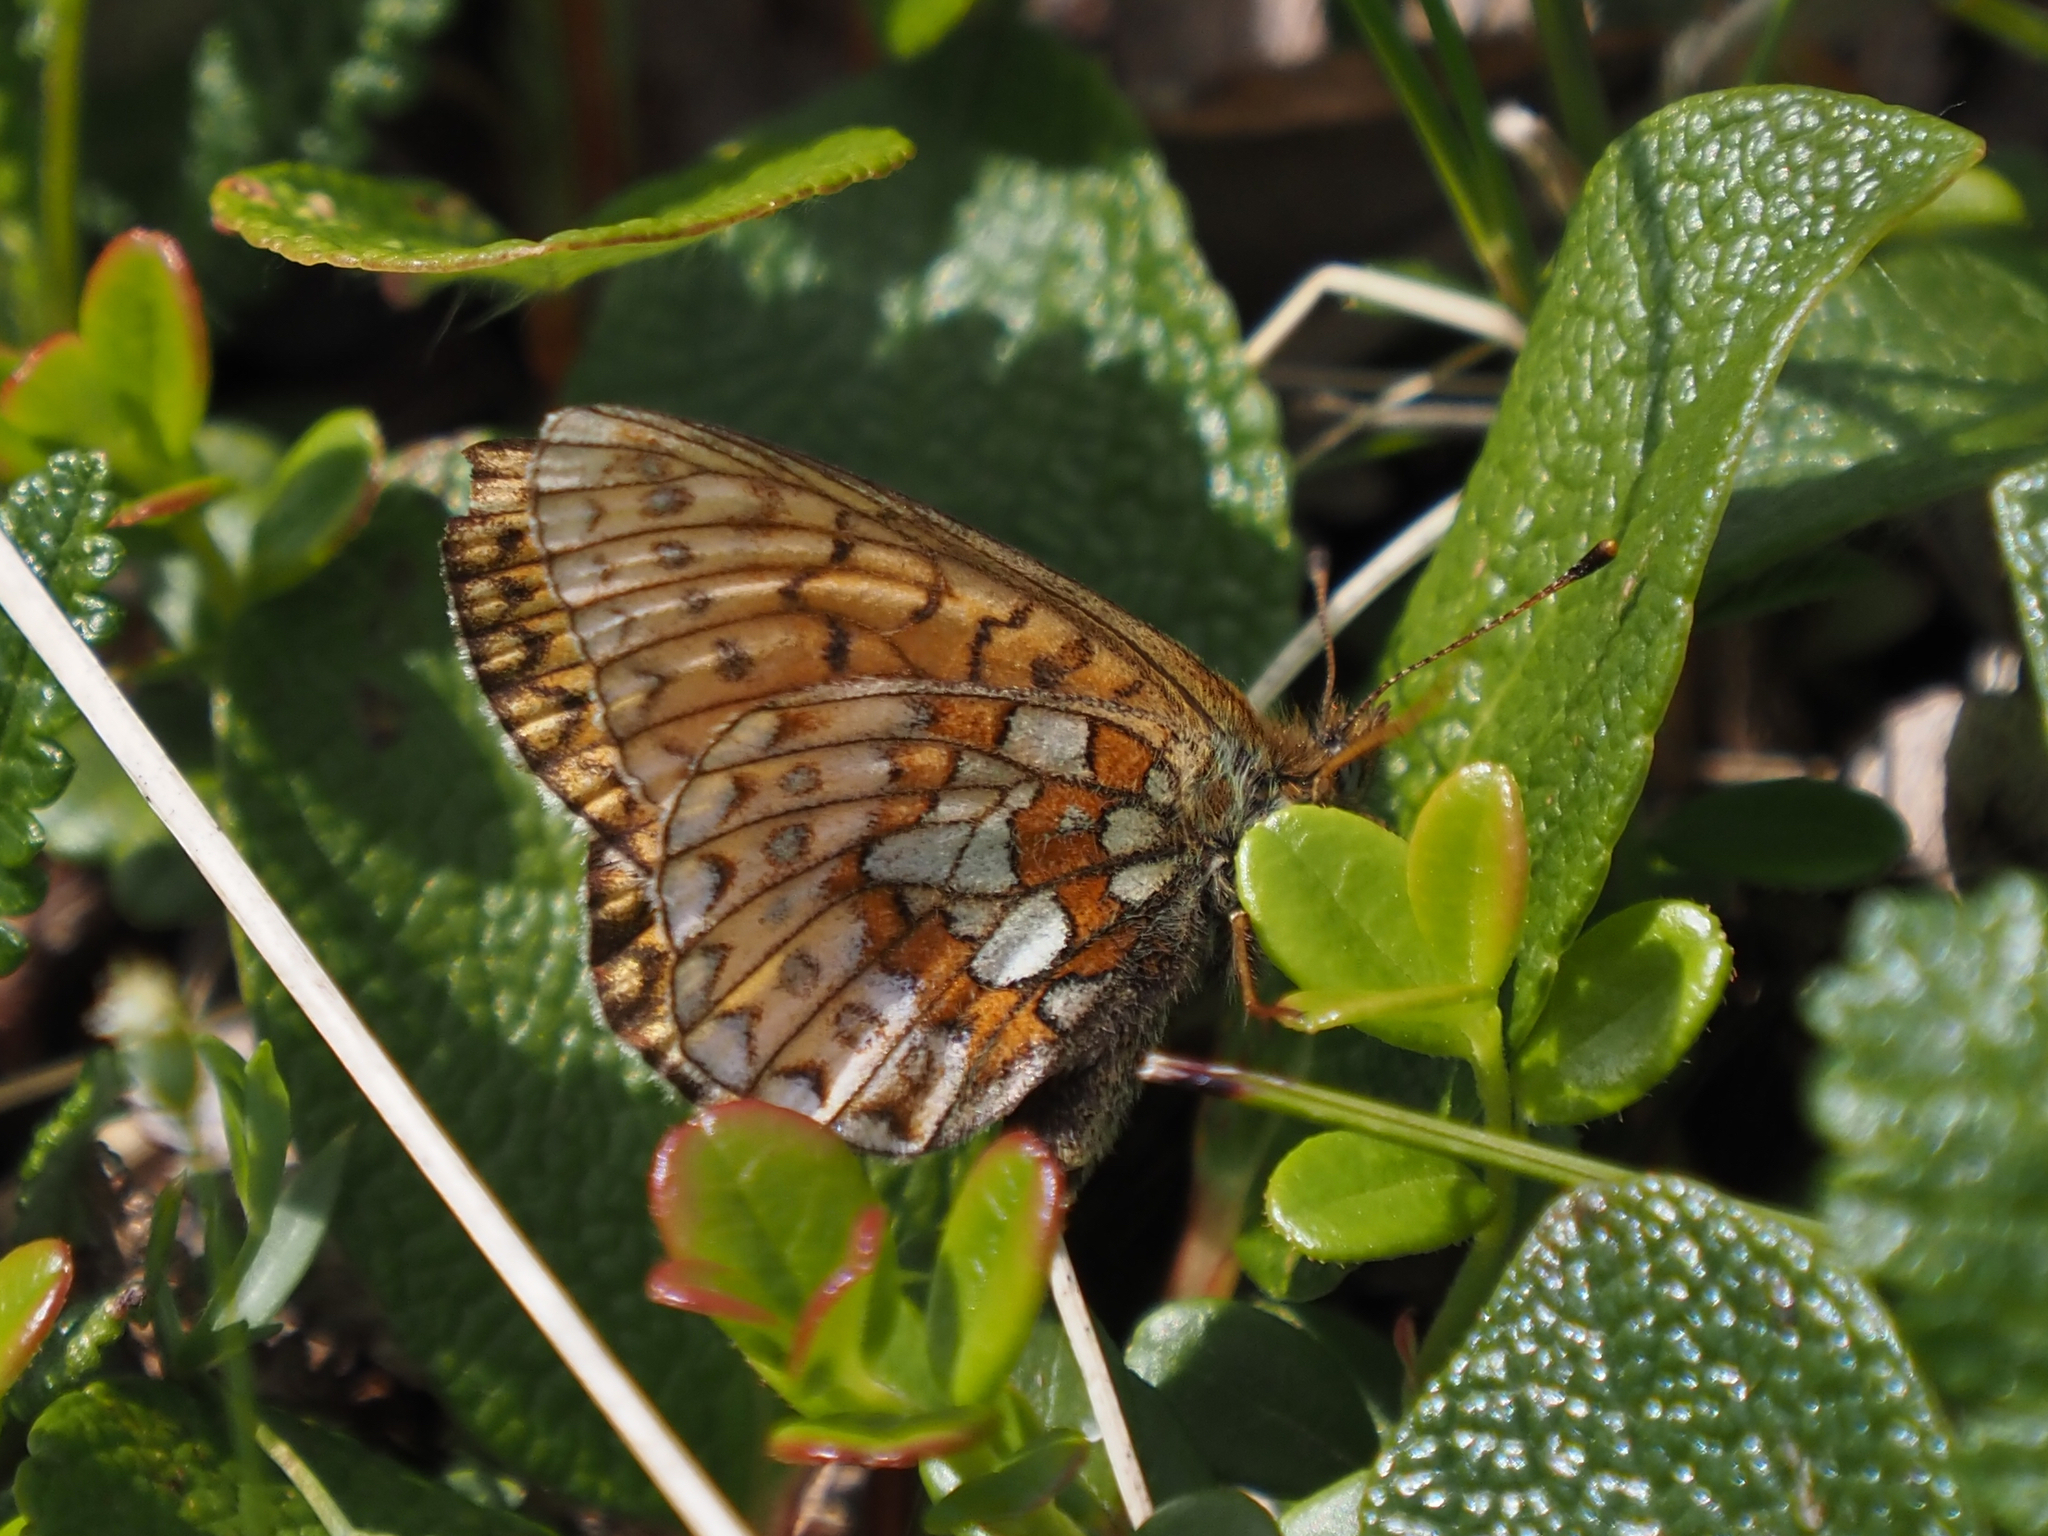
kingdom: Animalia
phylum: Arthropoda
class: Insecta
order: Lepidoptera
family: Nymphalidae
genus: Boloria
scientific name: Boloria eunomia
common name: Bog fritillary
